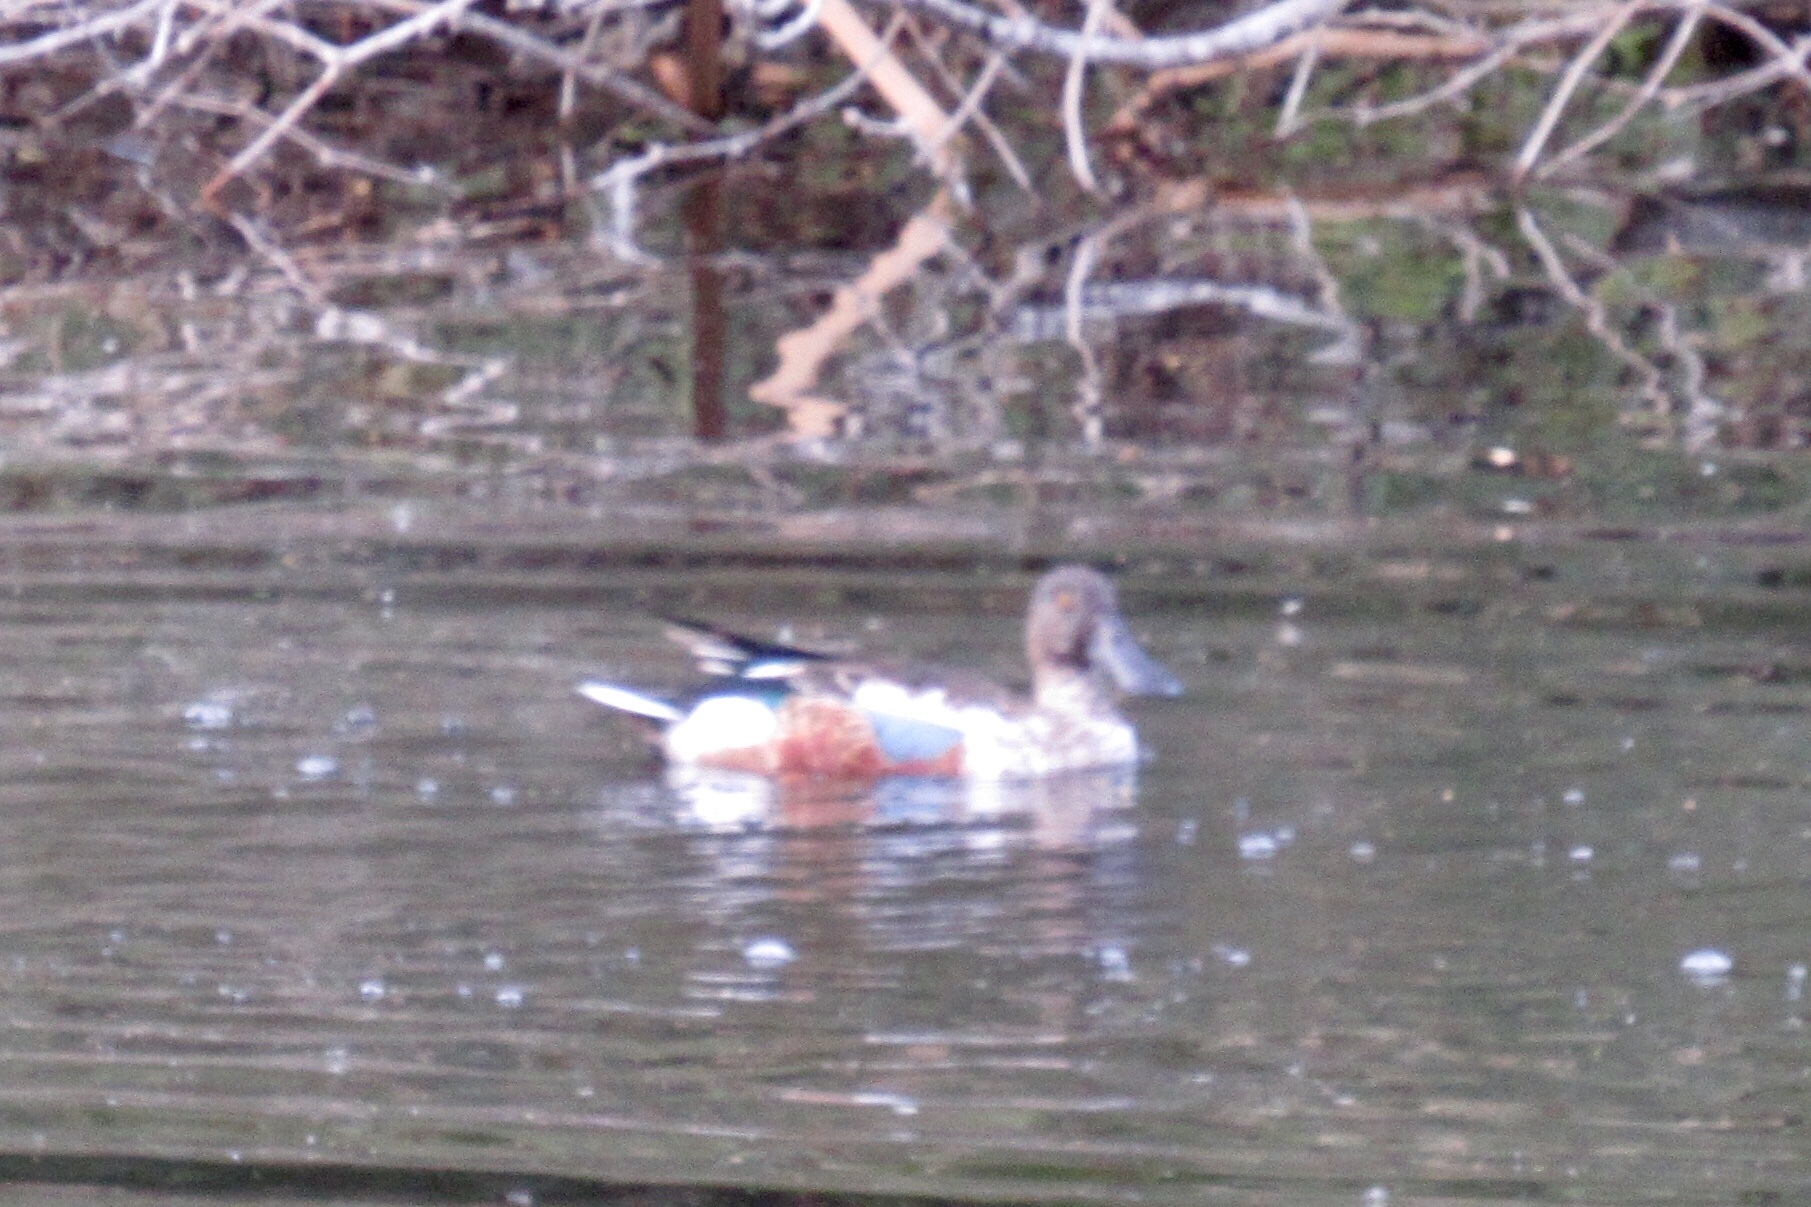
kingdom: Animalia
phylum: Chordata
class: Aves
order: Anseriformes
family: Anatidae
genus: Spatula
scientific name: Spatula clypeata
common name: Northern shoveler
